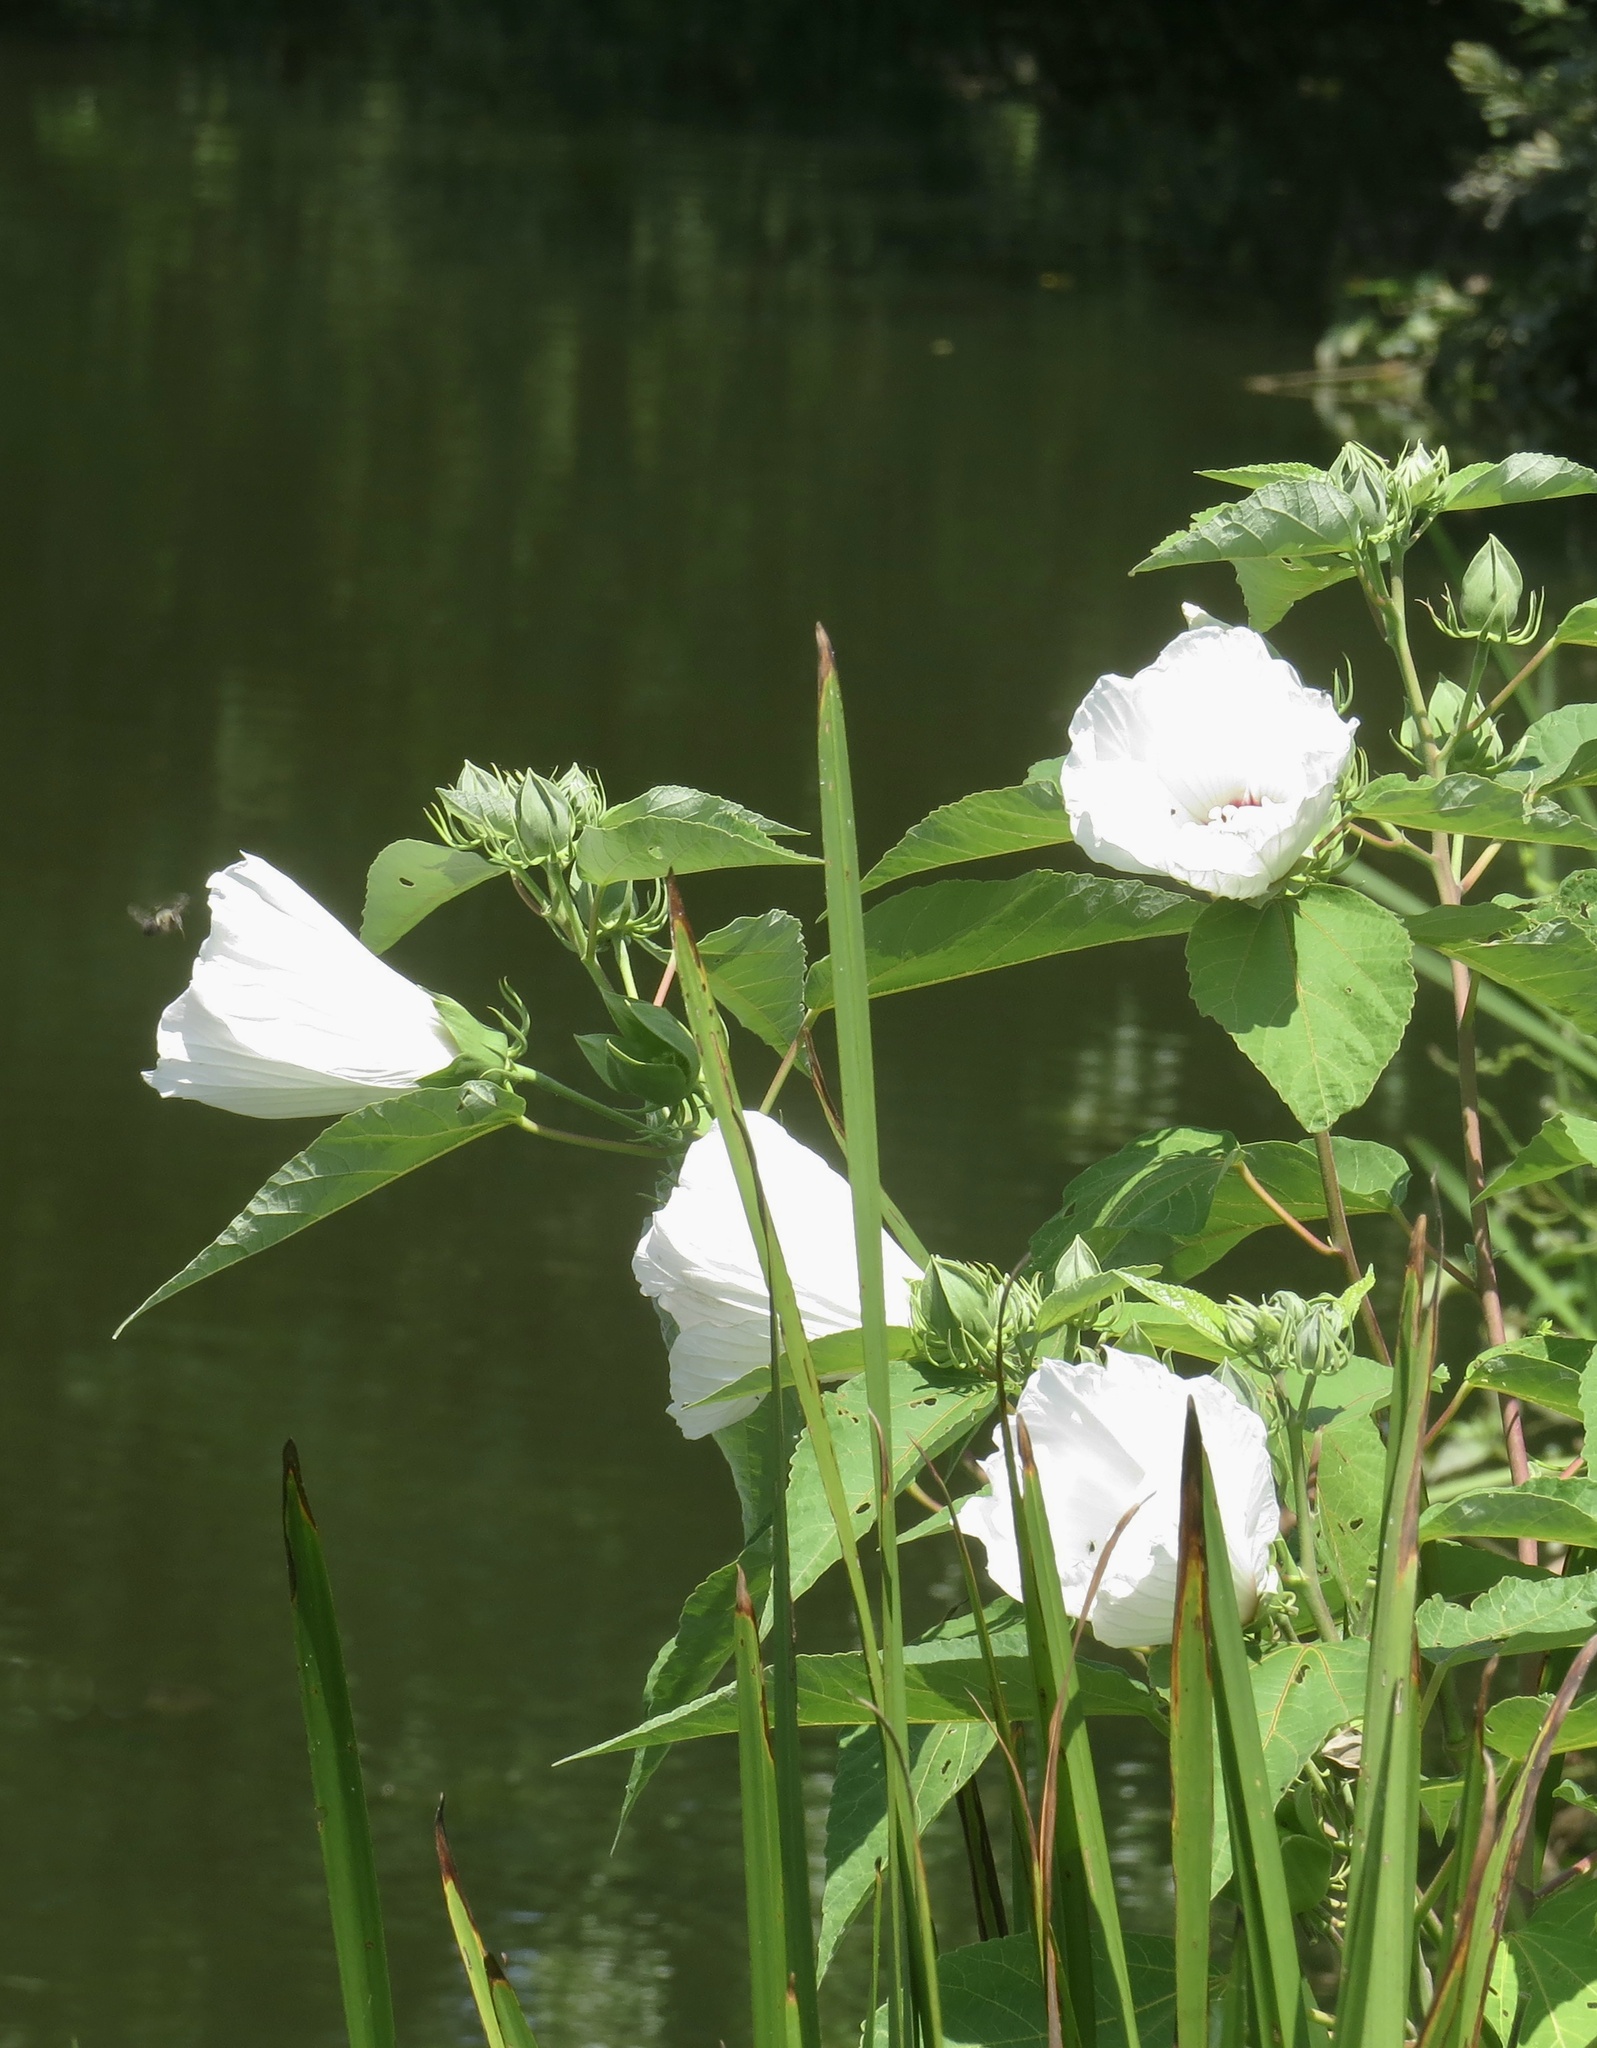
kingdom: Plantae
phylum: Tracheophyta
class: Magnoliopsida
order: Malvales
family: Malvaceae
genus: Hibiscus
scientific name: Hibiscus moscheutos
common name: Common rose-mallow
